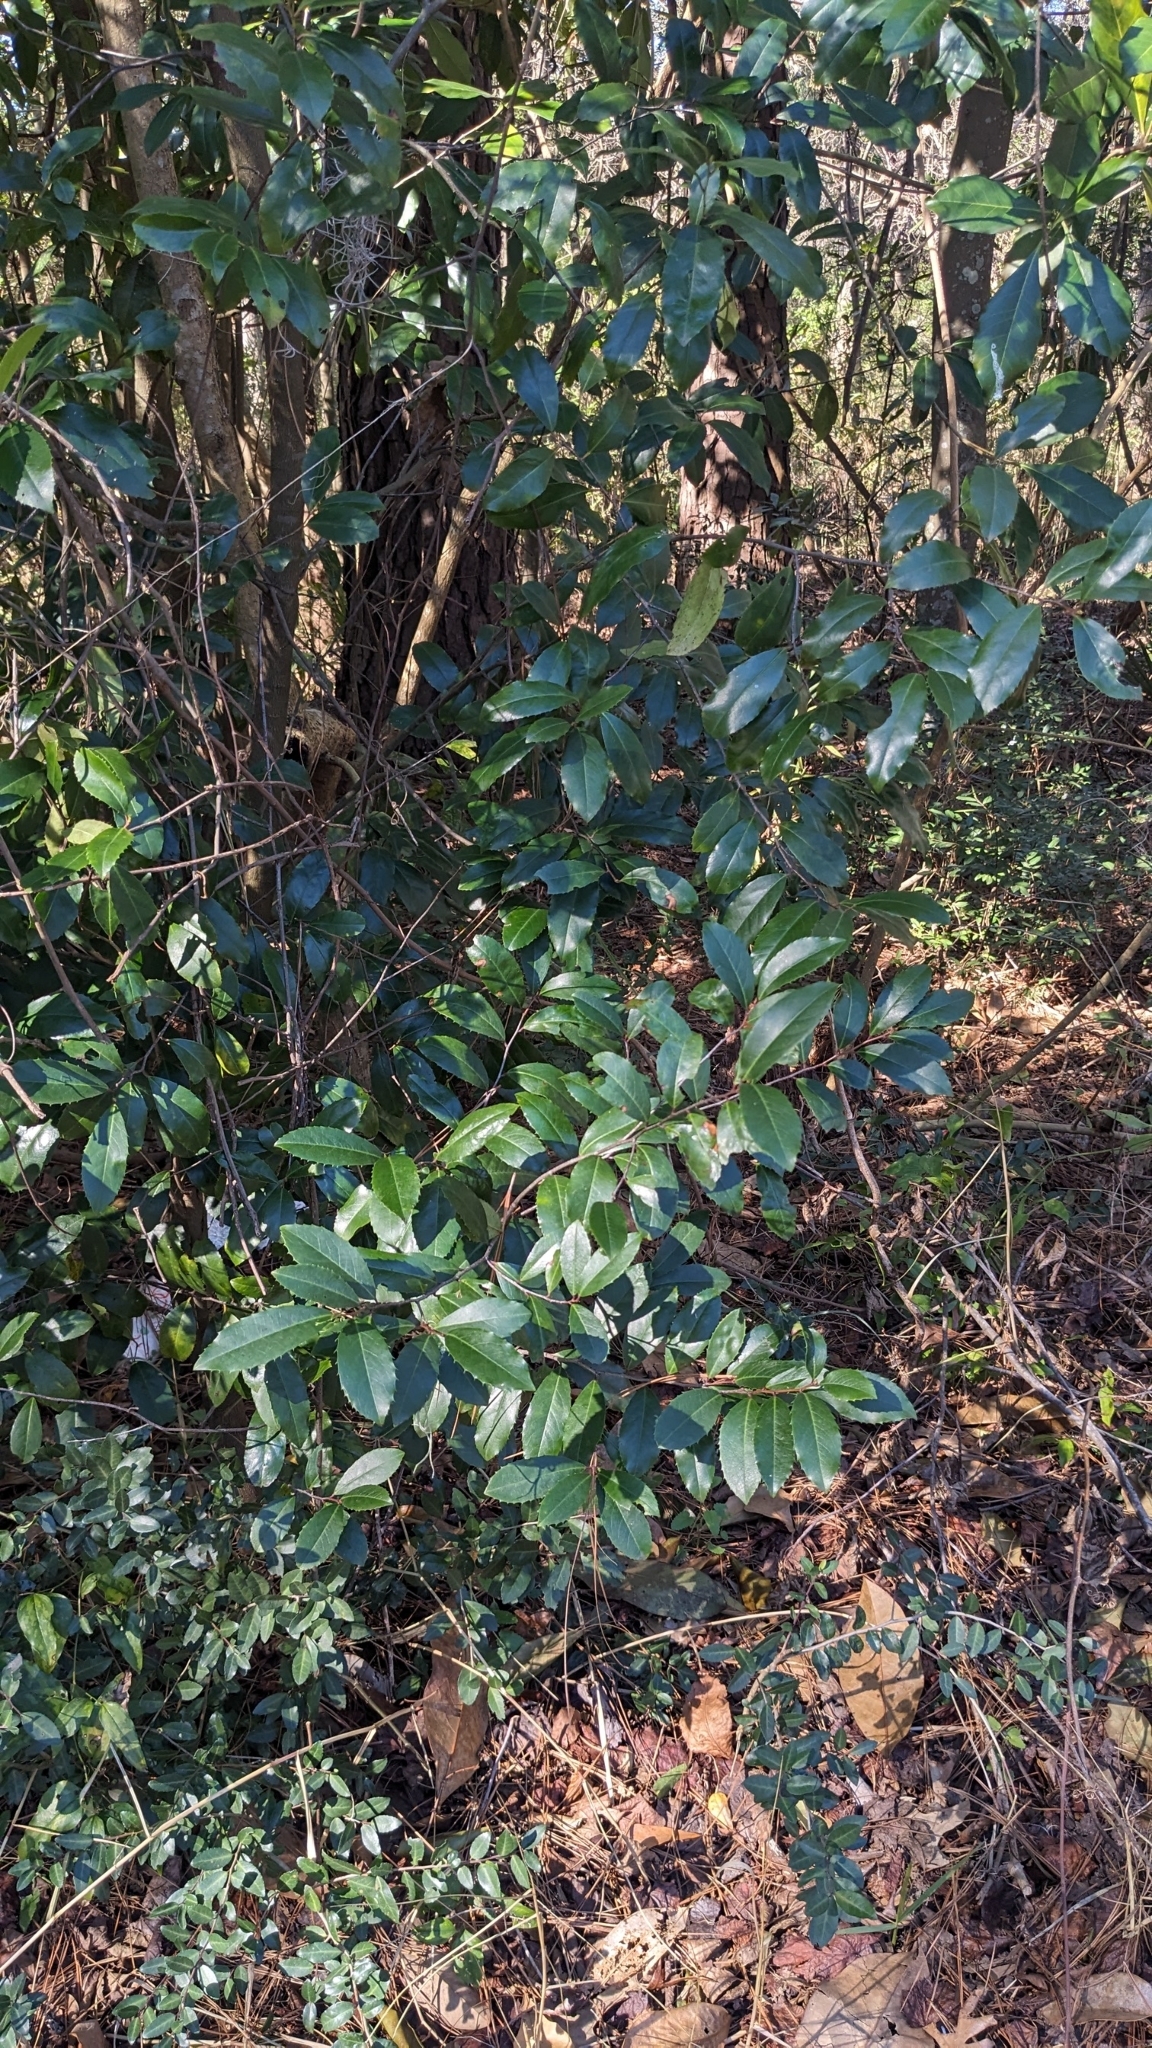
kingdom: Plantae
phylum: Tracheophyta
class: Magnoliopsida
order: Rosales
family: Rosaceae
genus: Prunus
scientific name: Prunus caroliniana
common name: Carolina laurel cherry
